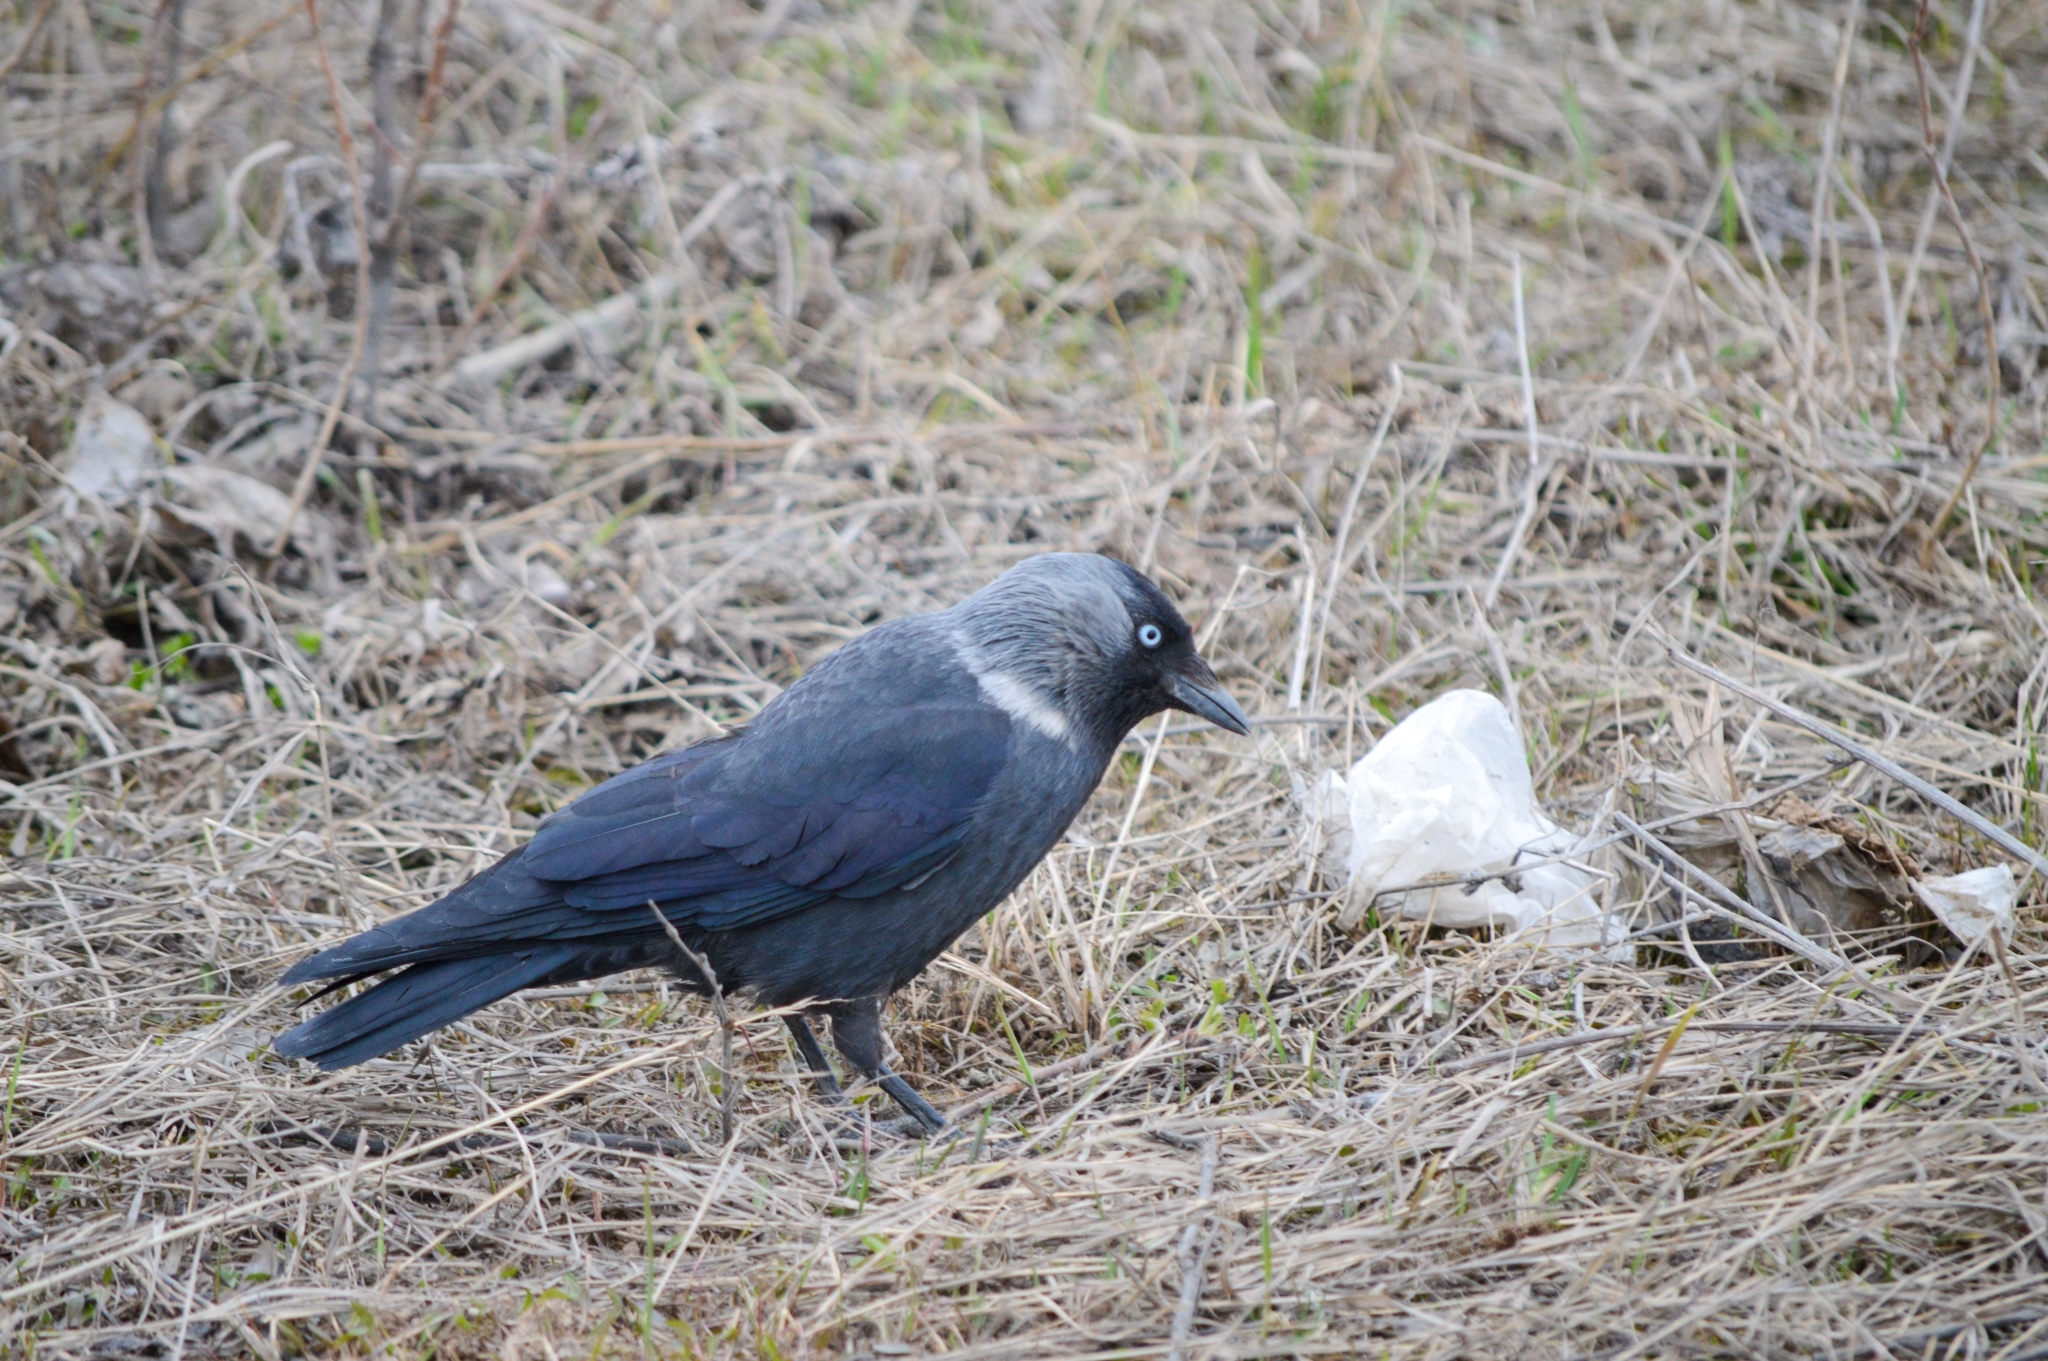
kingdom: Animalia
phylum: Chordata
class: Aves
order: Passeriformes
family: Corvidae
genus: Coloeus
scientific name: Coloeus monedula
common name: Western jackdaw
